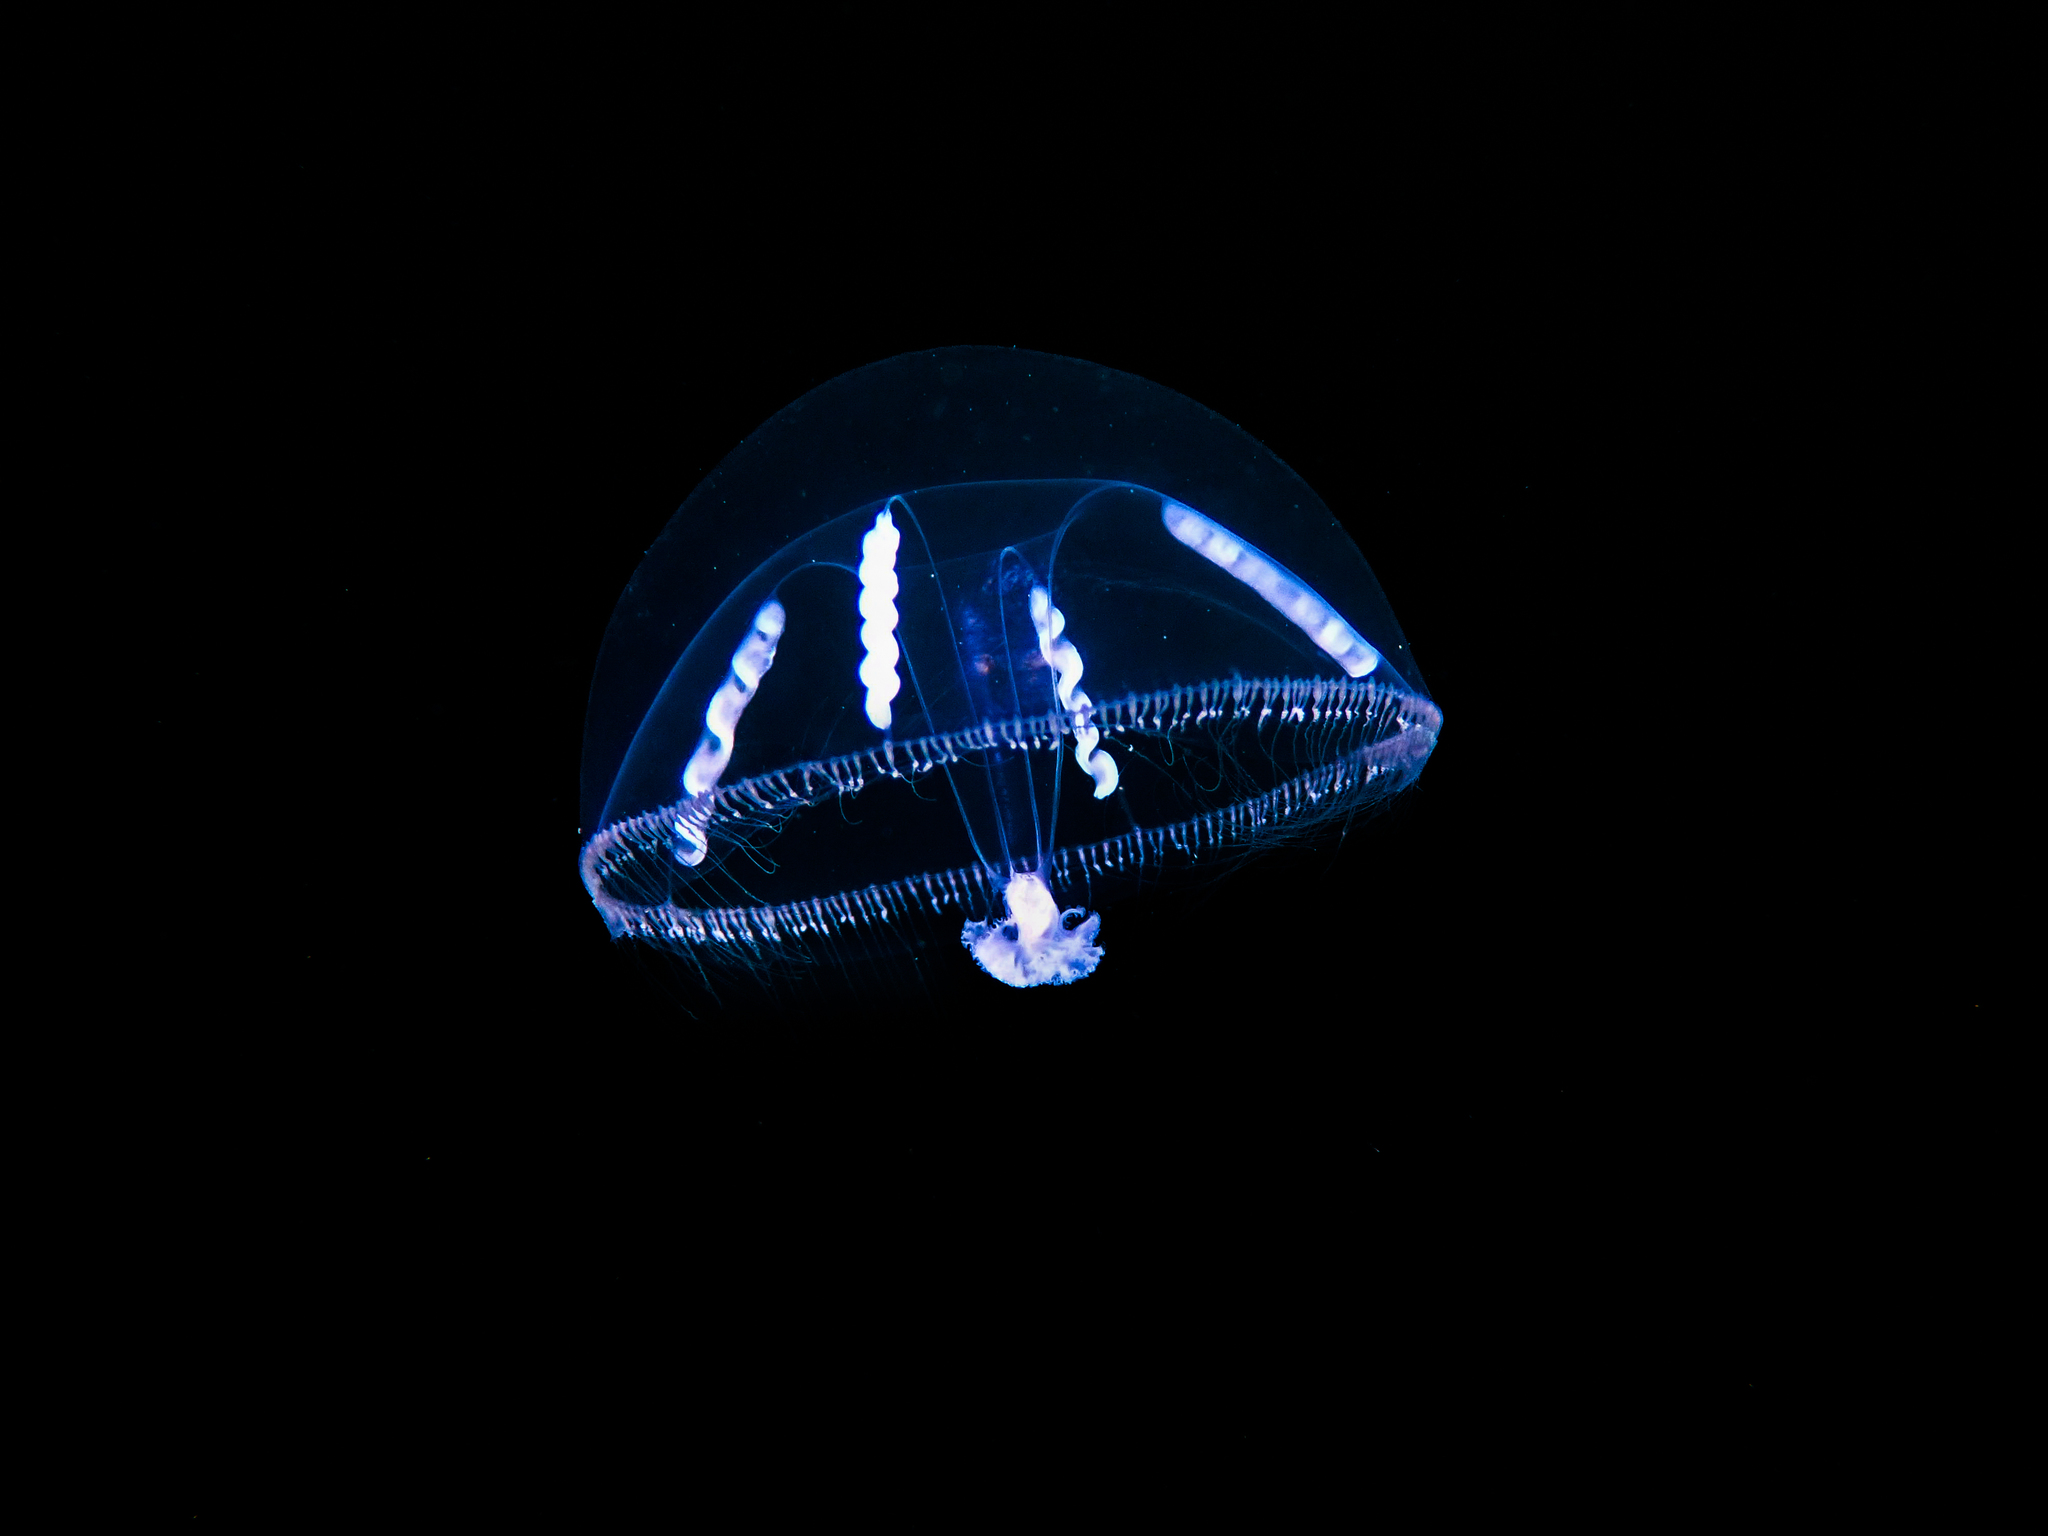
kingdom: Animalia
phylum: Cnidaria
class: Hydrozoa
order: Leptothecata
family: Eirenidae
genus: Eutonina
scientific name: Eutonina indicans
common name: Umbrella jellyfish
